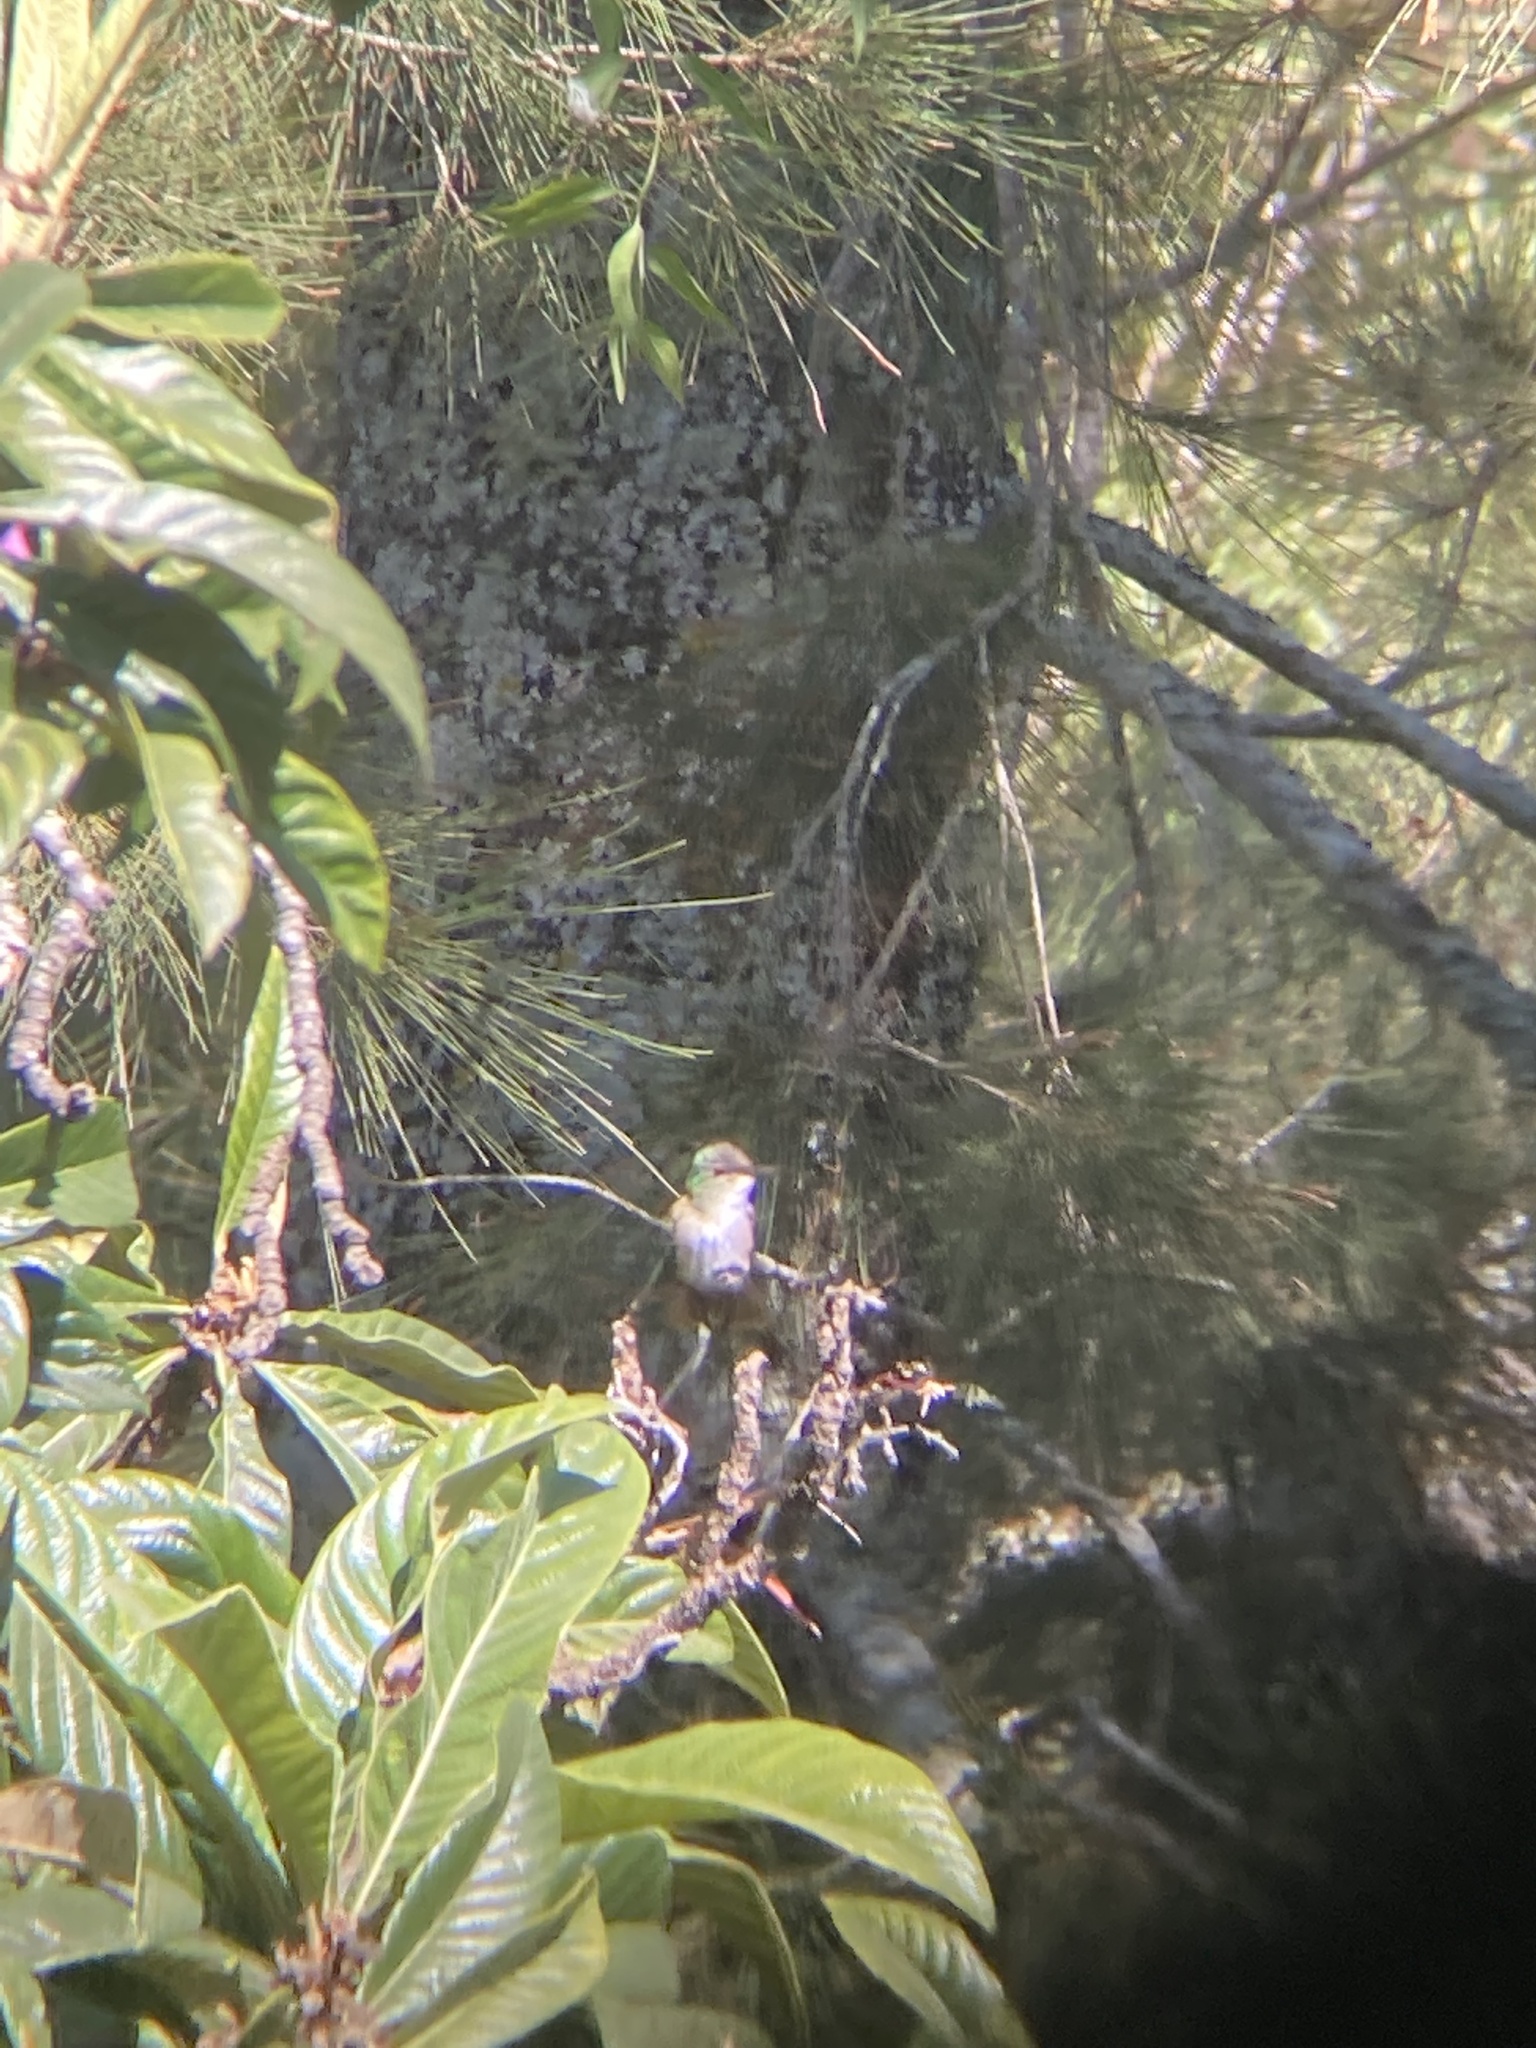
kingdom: Animalia
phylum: Chordata
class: Aves
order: Apodiformes
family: Trochilidae
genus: Saucerottia
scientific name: Saucerottia cyanocephala
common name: Azure-crowned hummingbird
